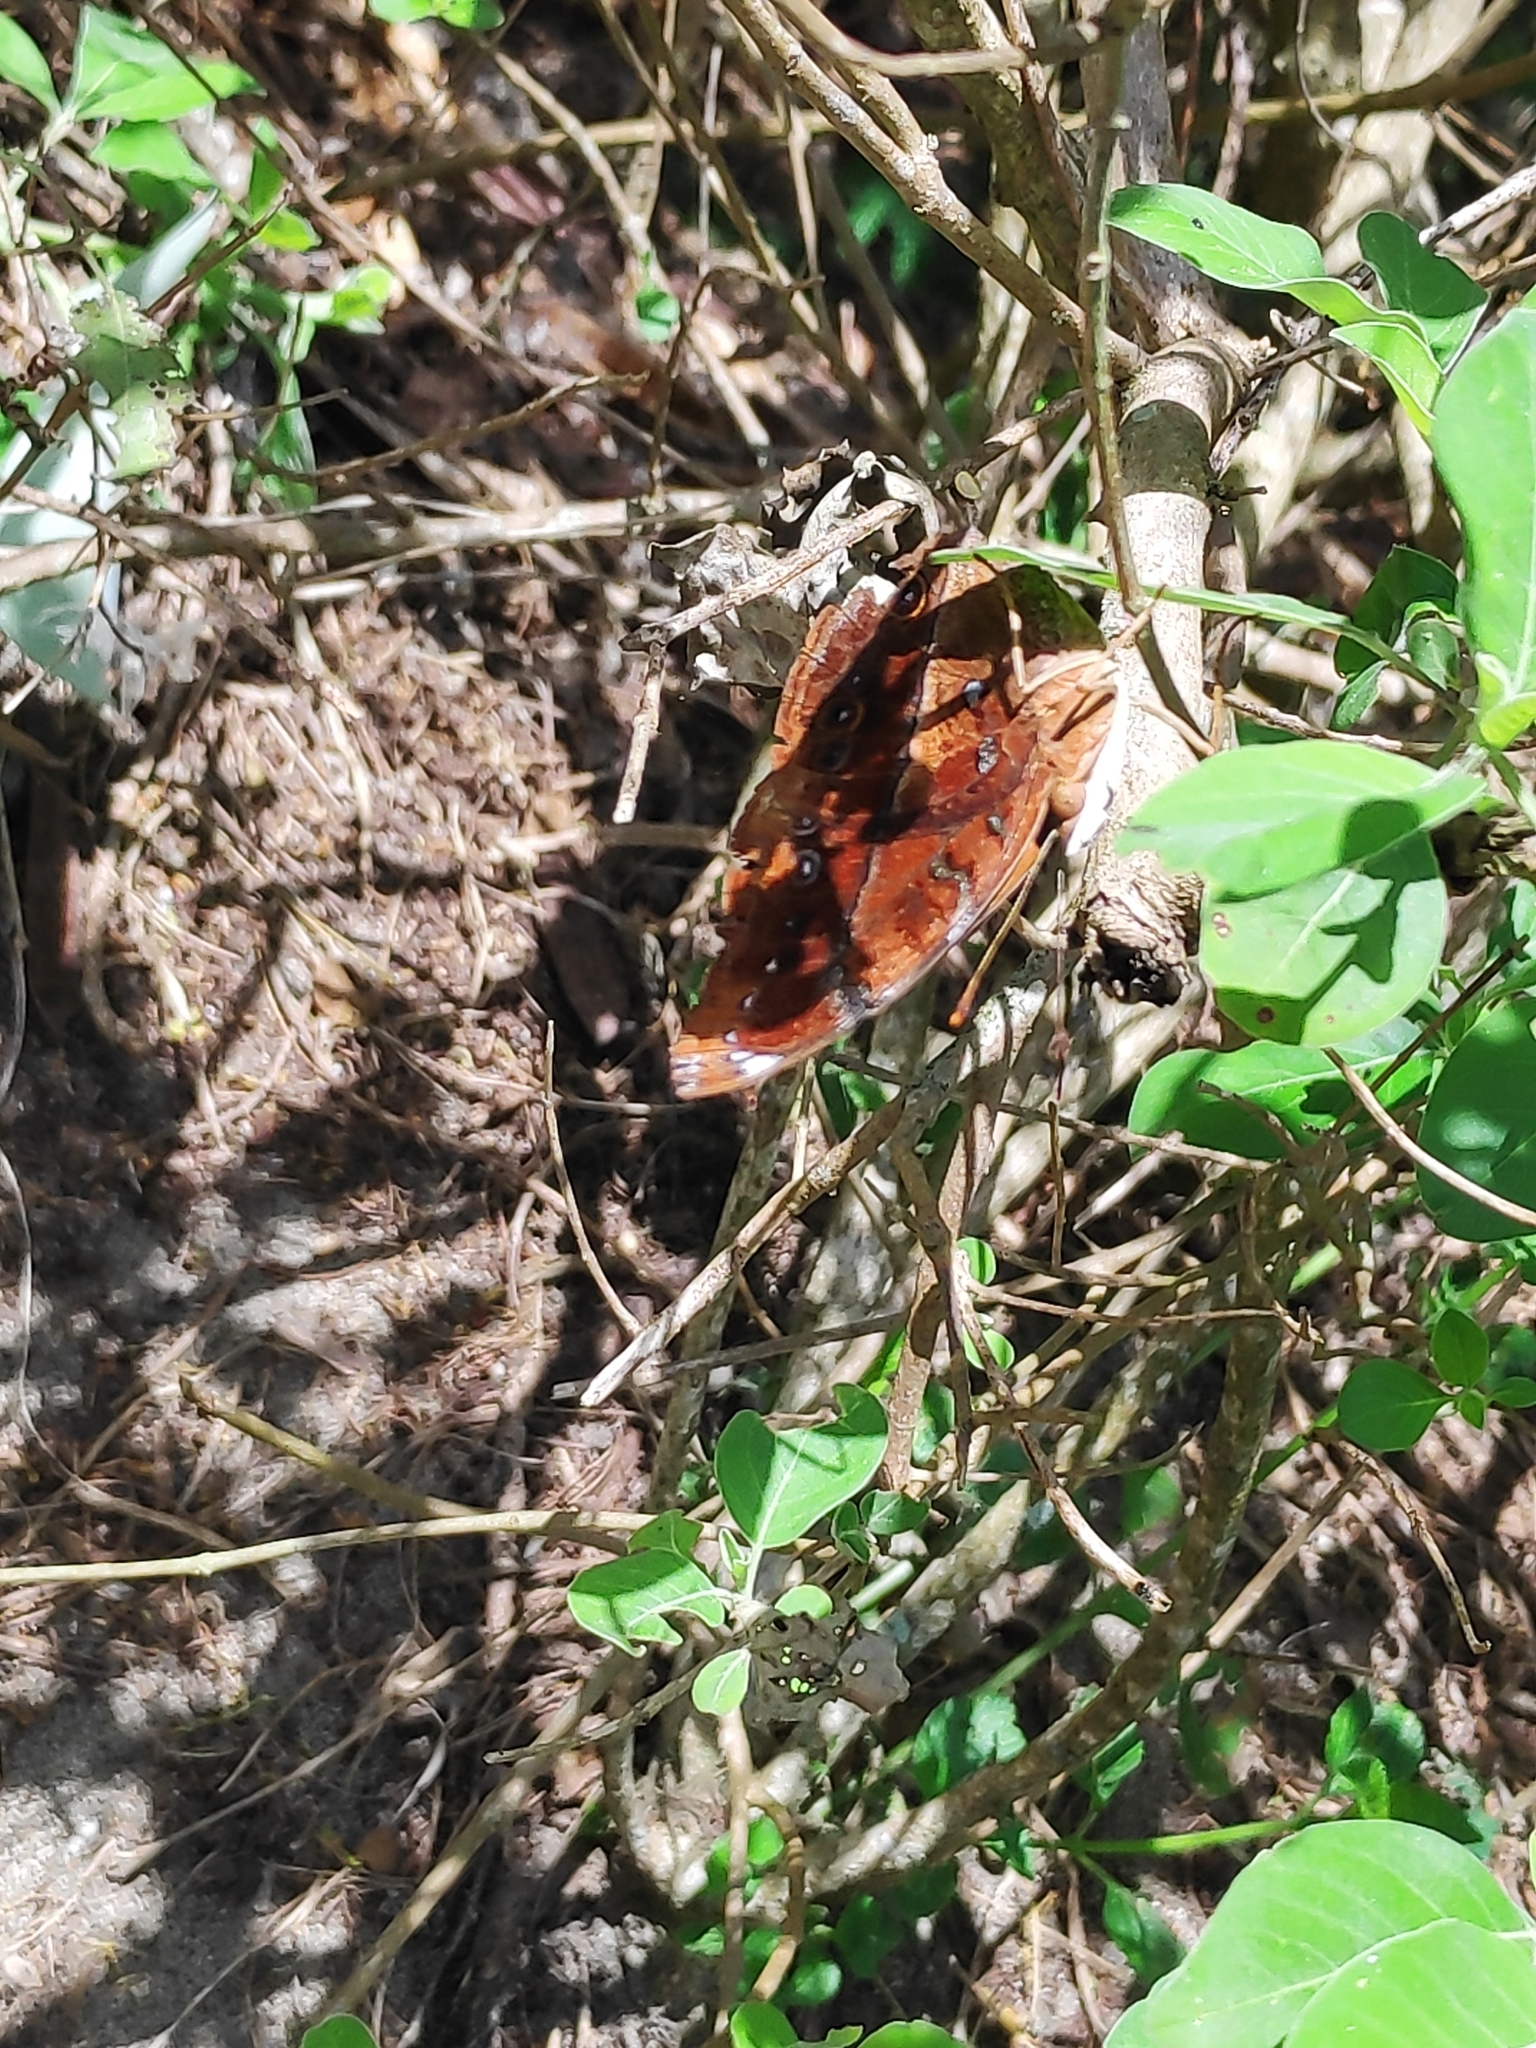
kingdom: Animalia
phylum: Arthropoda
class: Insecta
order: Lepidoptera
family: Nymphalidae
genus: Doleschallia
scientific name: Doleschallia bisaltide
